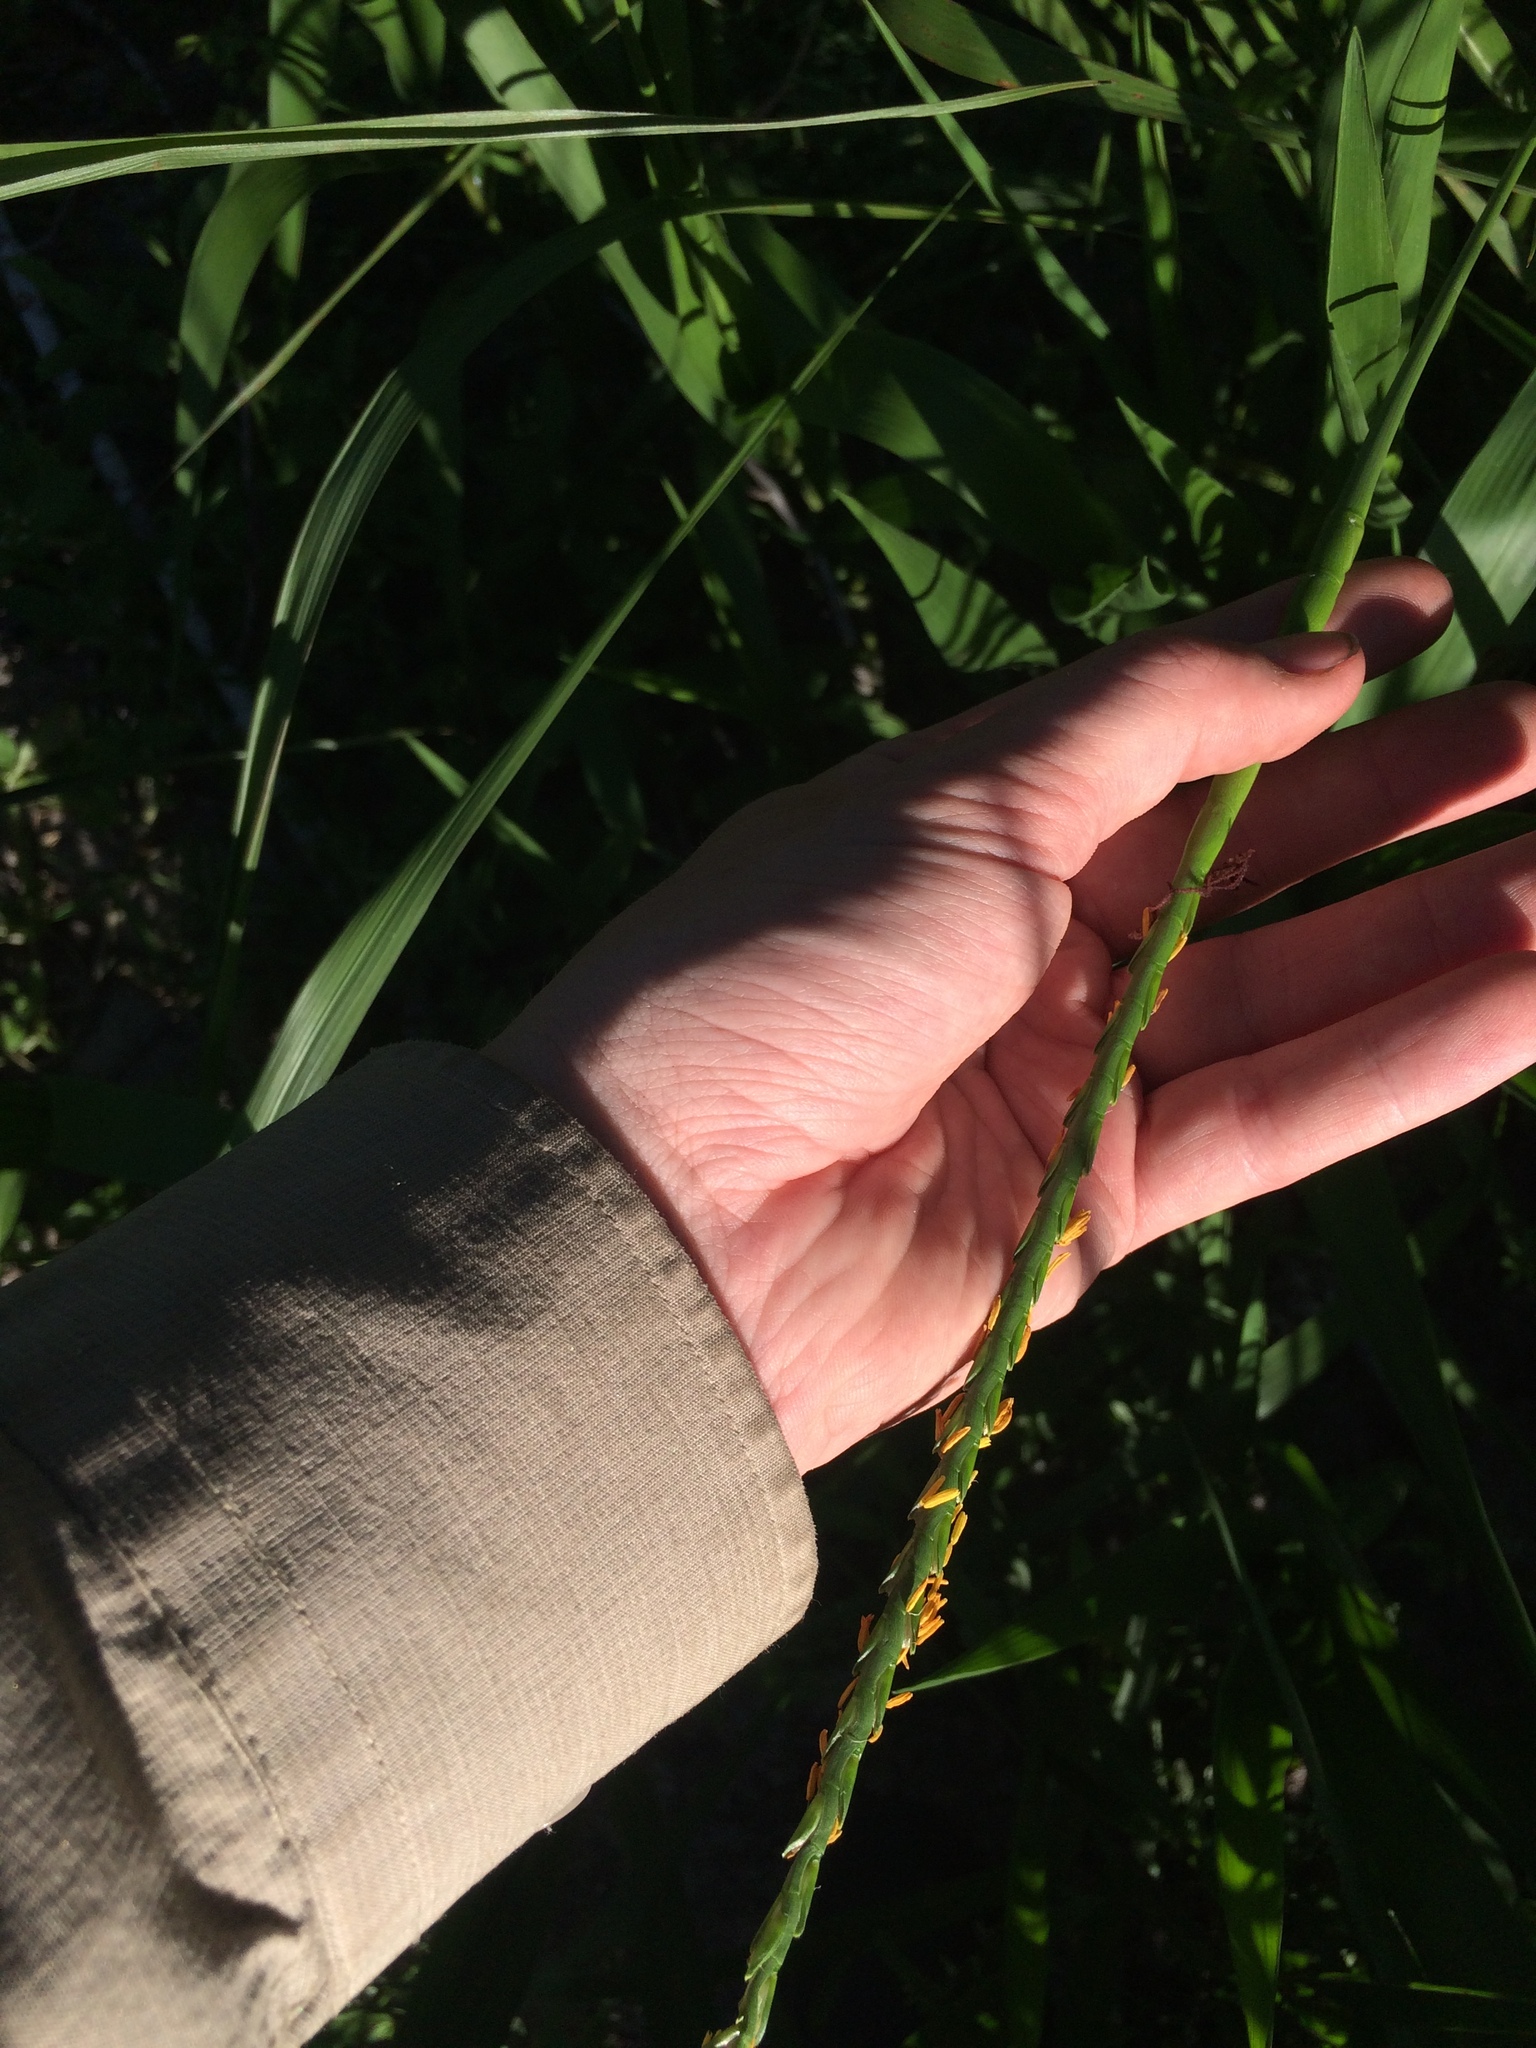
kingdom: Plantae
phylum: Tracheophyta
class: Liliopsida
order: Poales
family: Poaceae
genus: Tripsacum
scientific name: Tripsacum dactyloides
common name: Buffalo-grass
